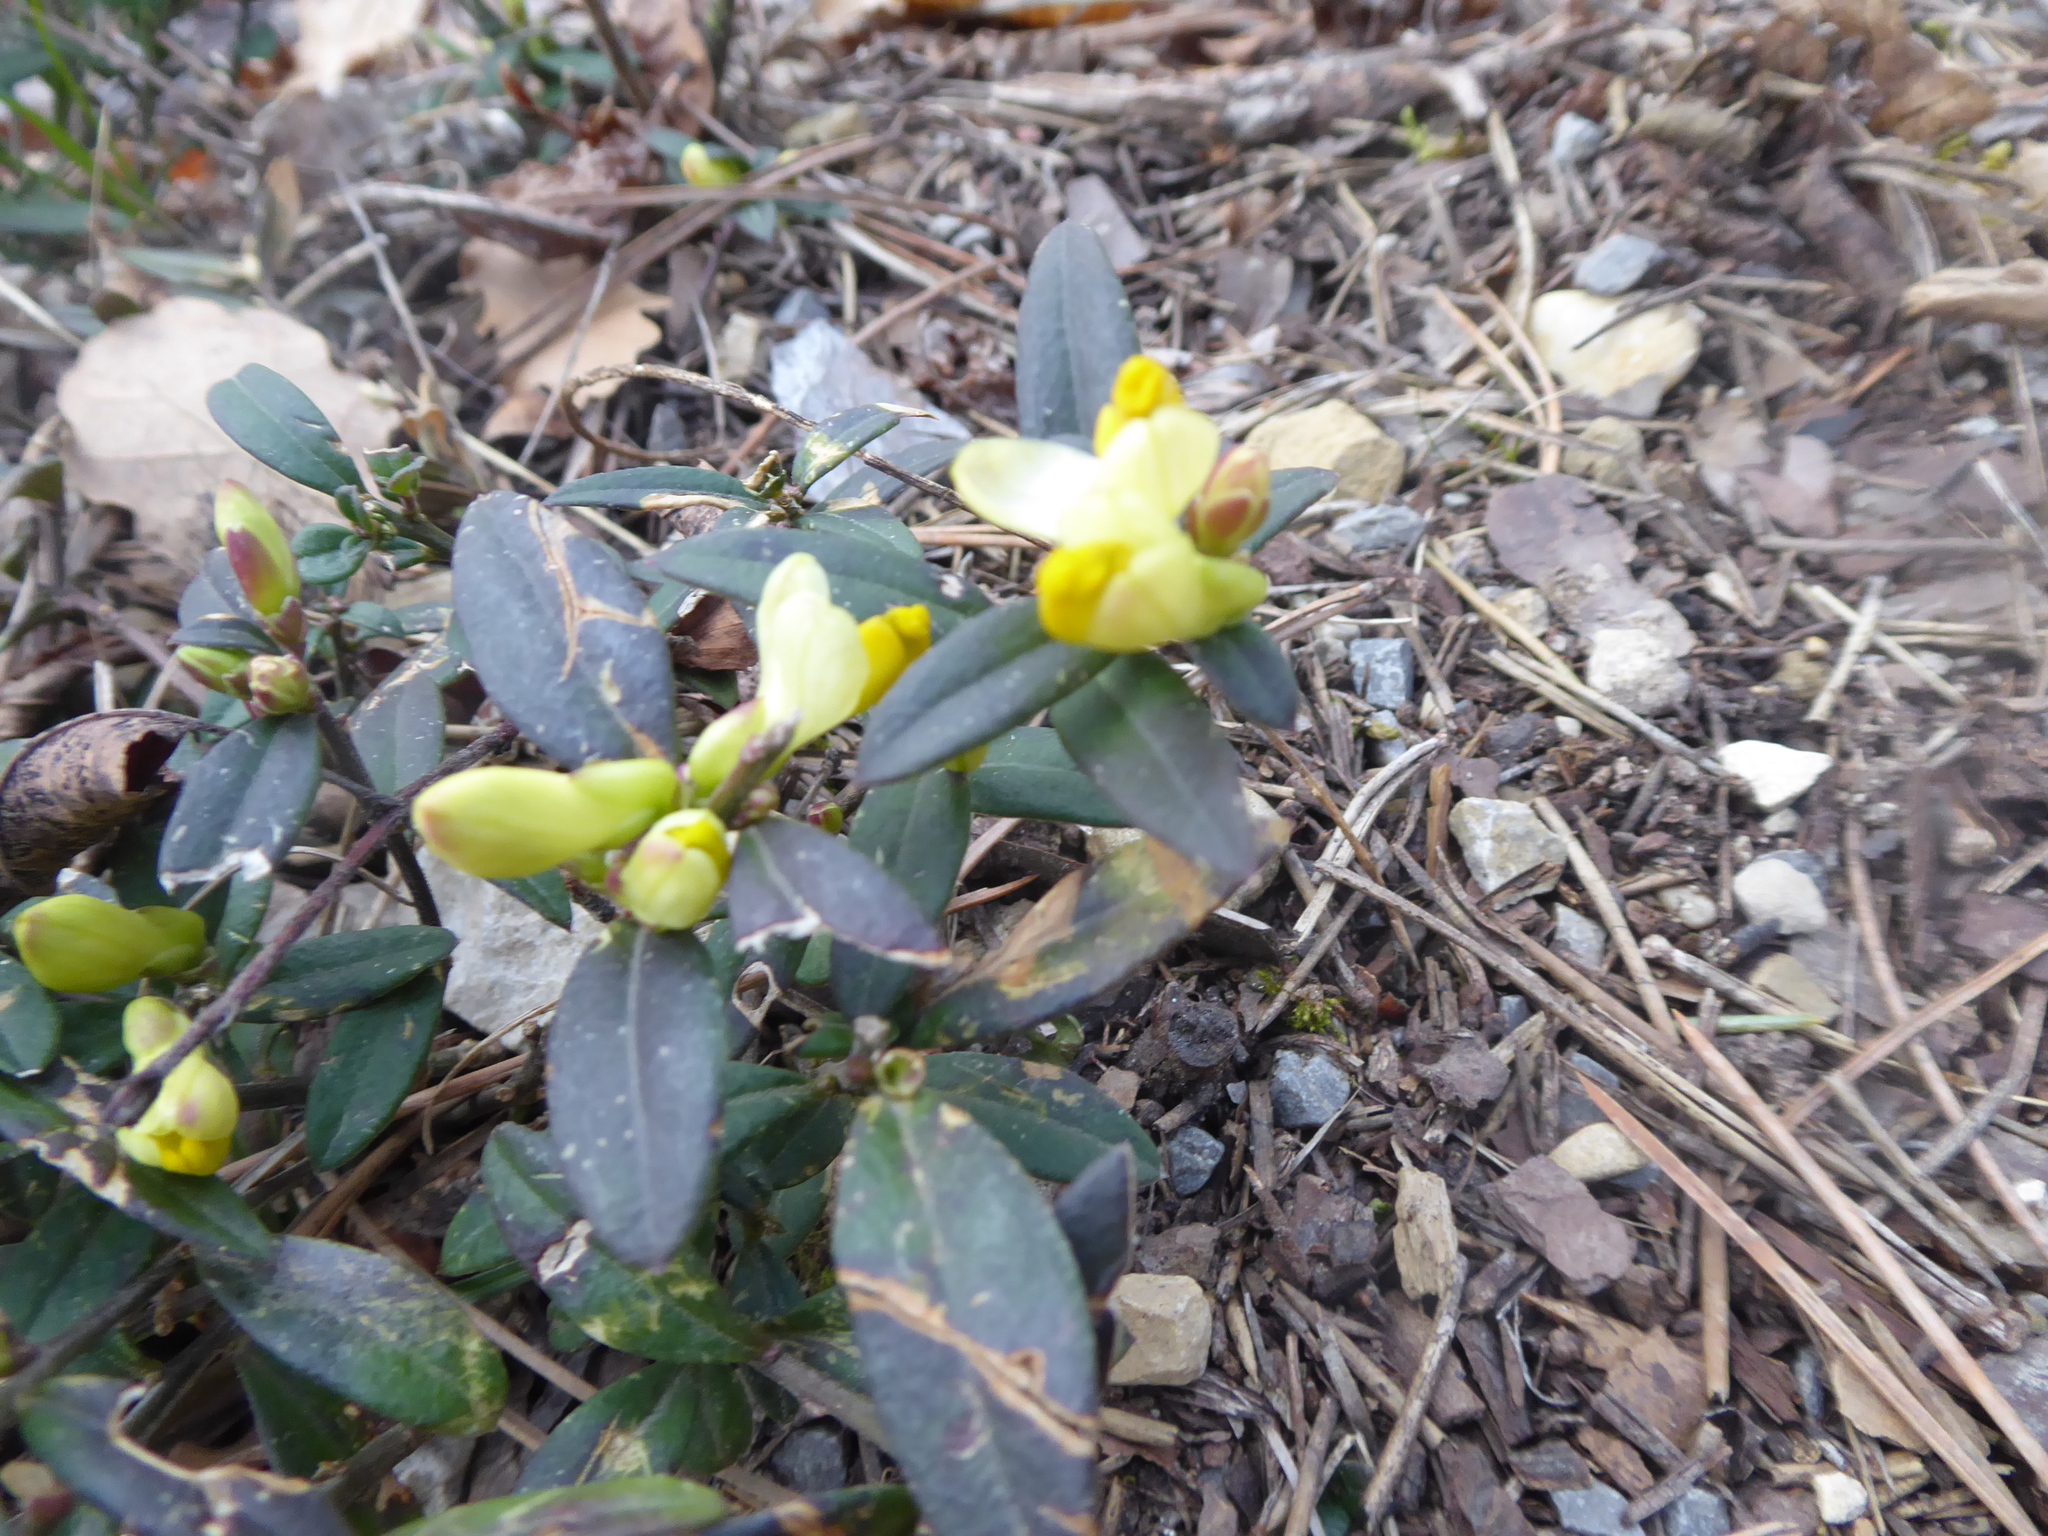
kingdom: Plantae
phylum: Tracheophyta
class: Magnoliopsida
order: Fabales
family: Polygalaceae
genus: Polygaloides
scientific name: Polygaloides chamaebuxus
